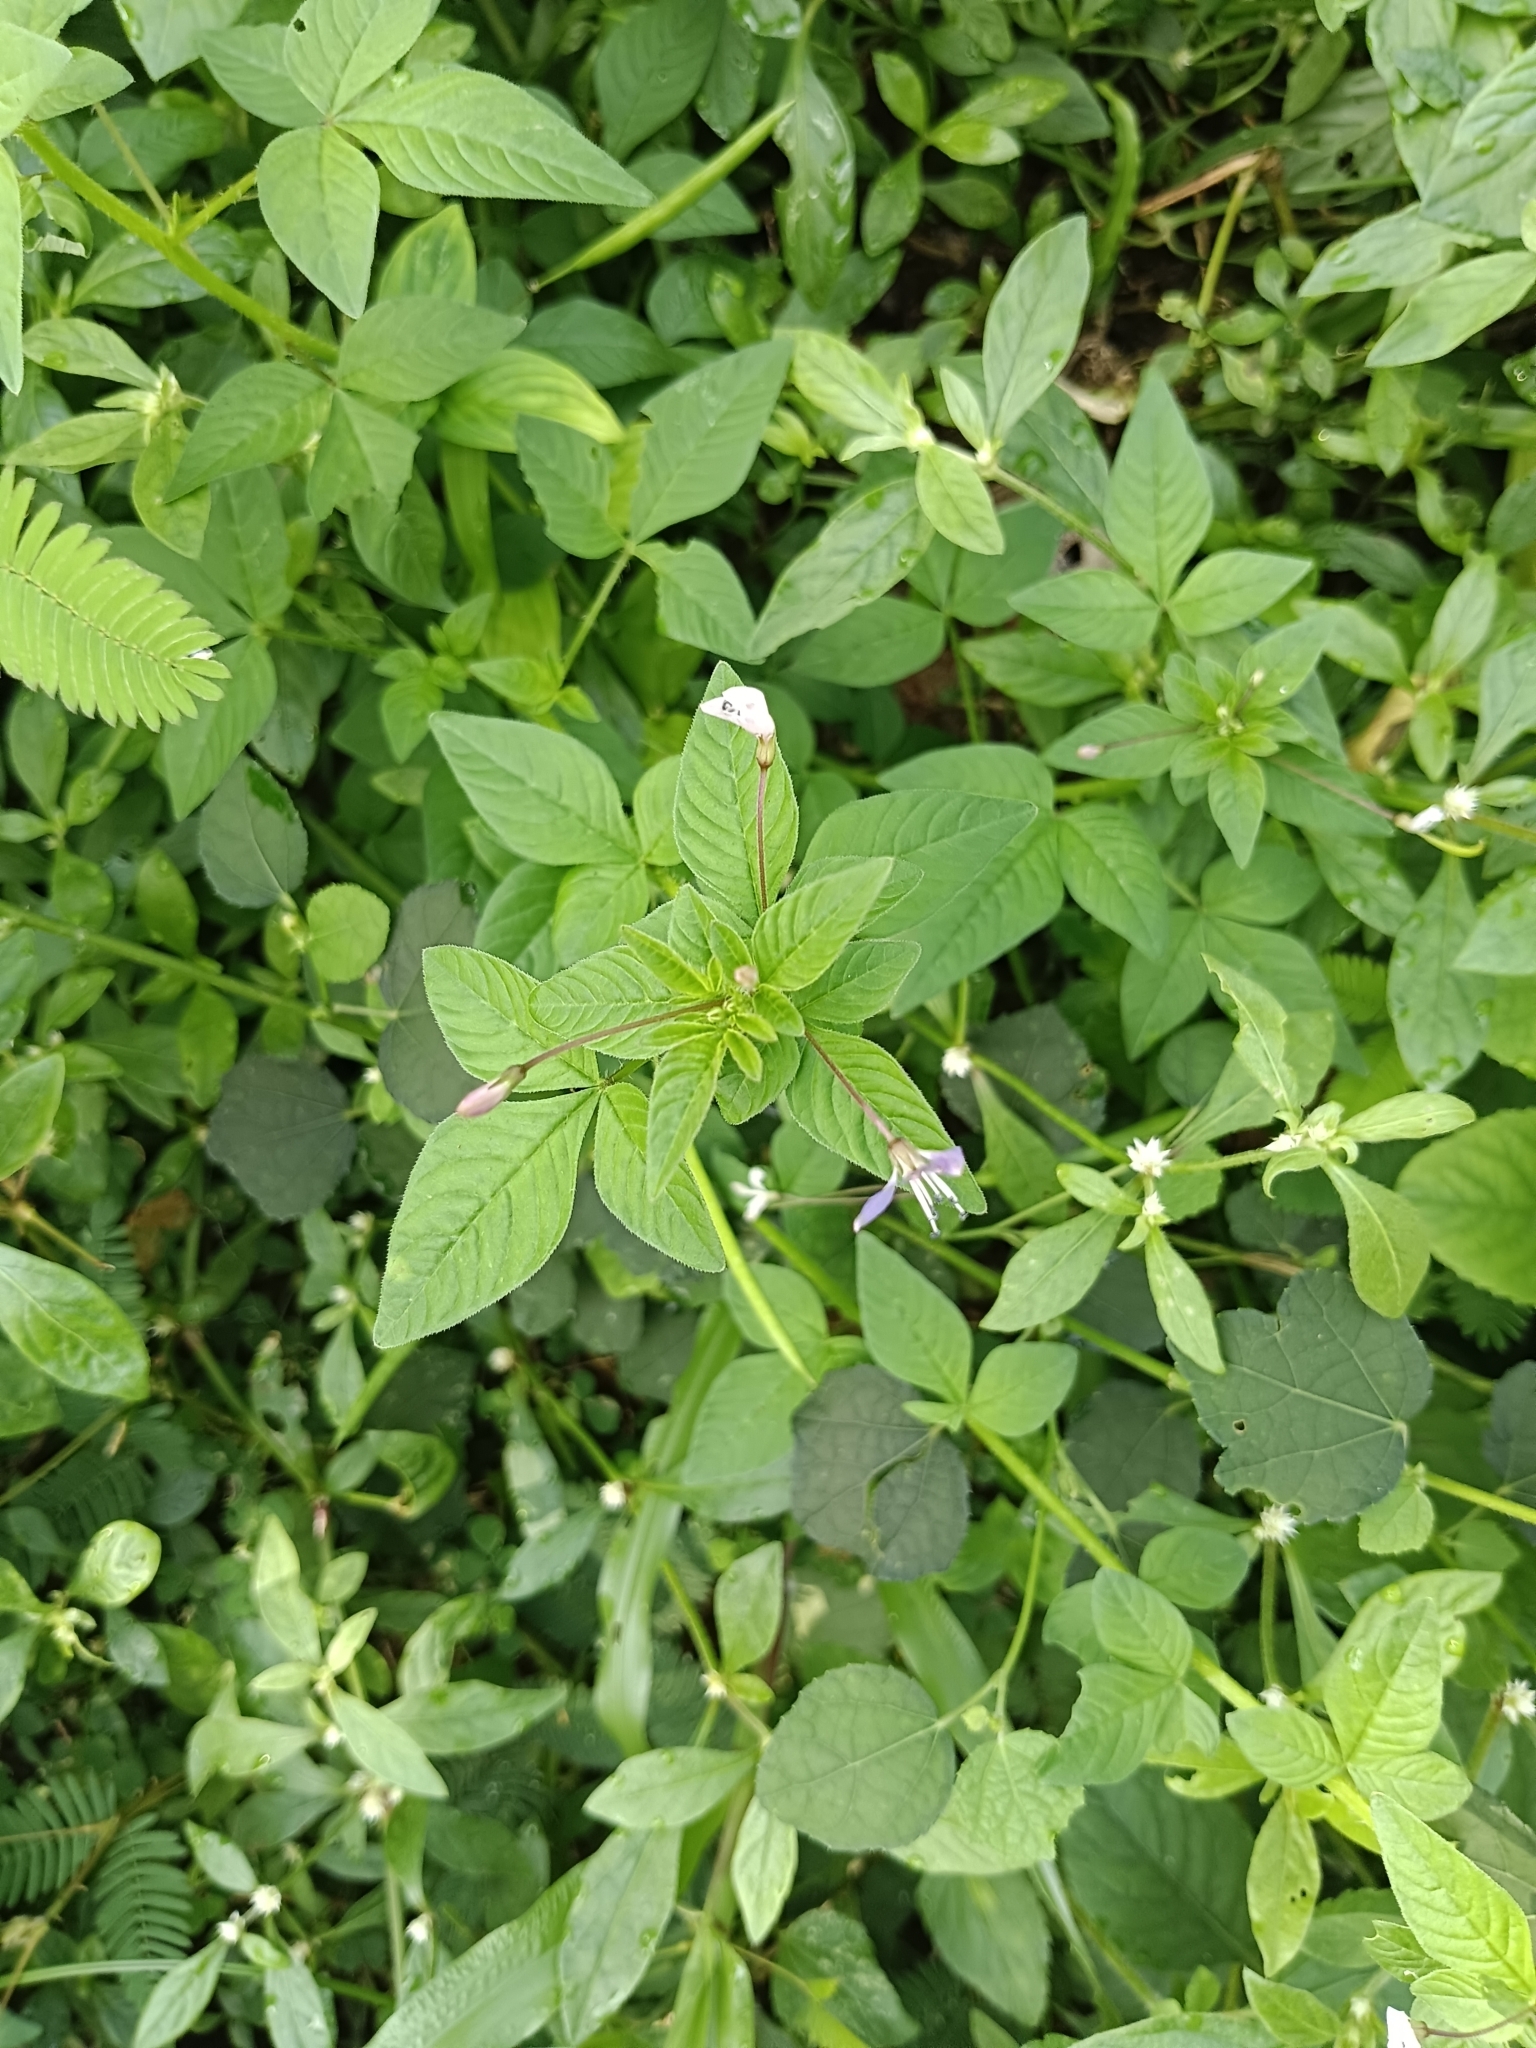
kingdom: Plantae
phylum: Tracheophyta
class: Magnoliopsida
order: Brassicales
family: Cleomaceae
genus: Sieruela
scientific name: Sieruela rutidosperma
